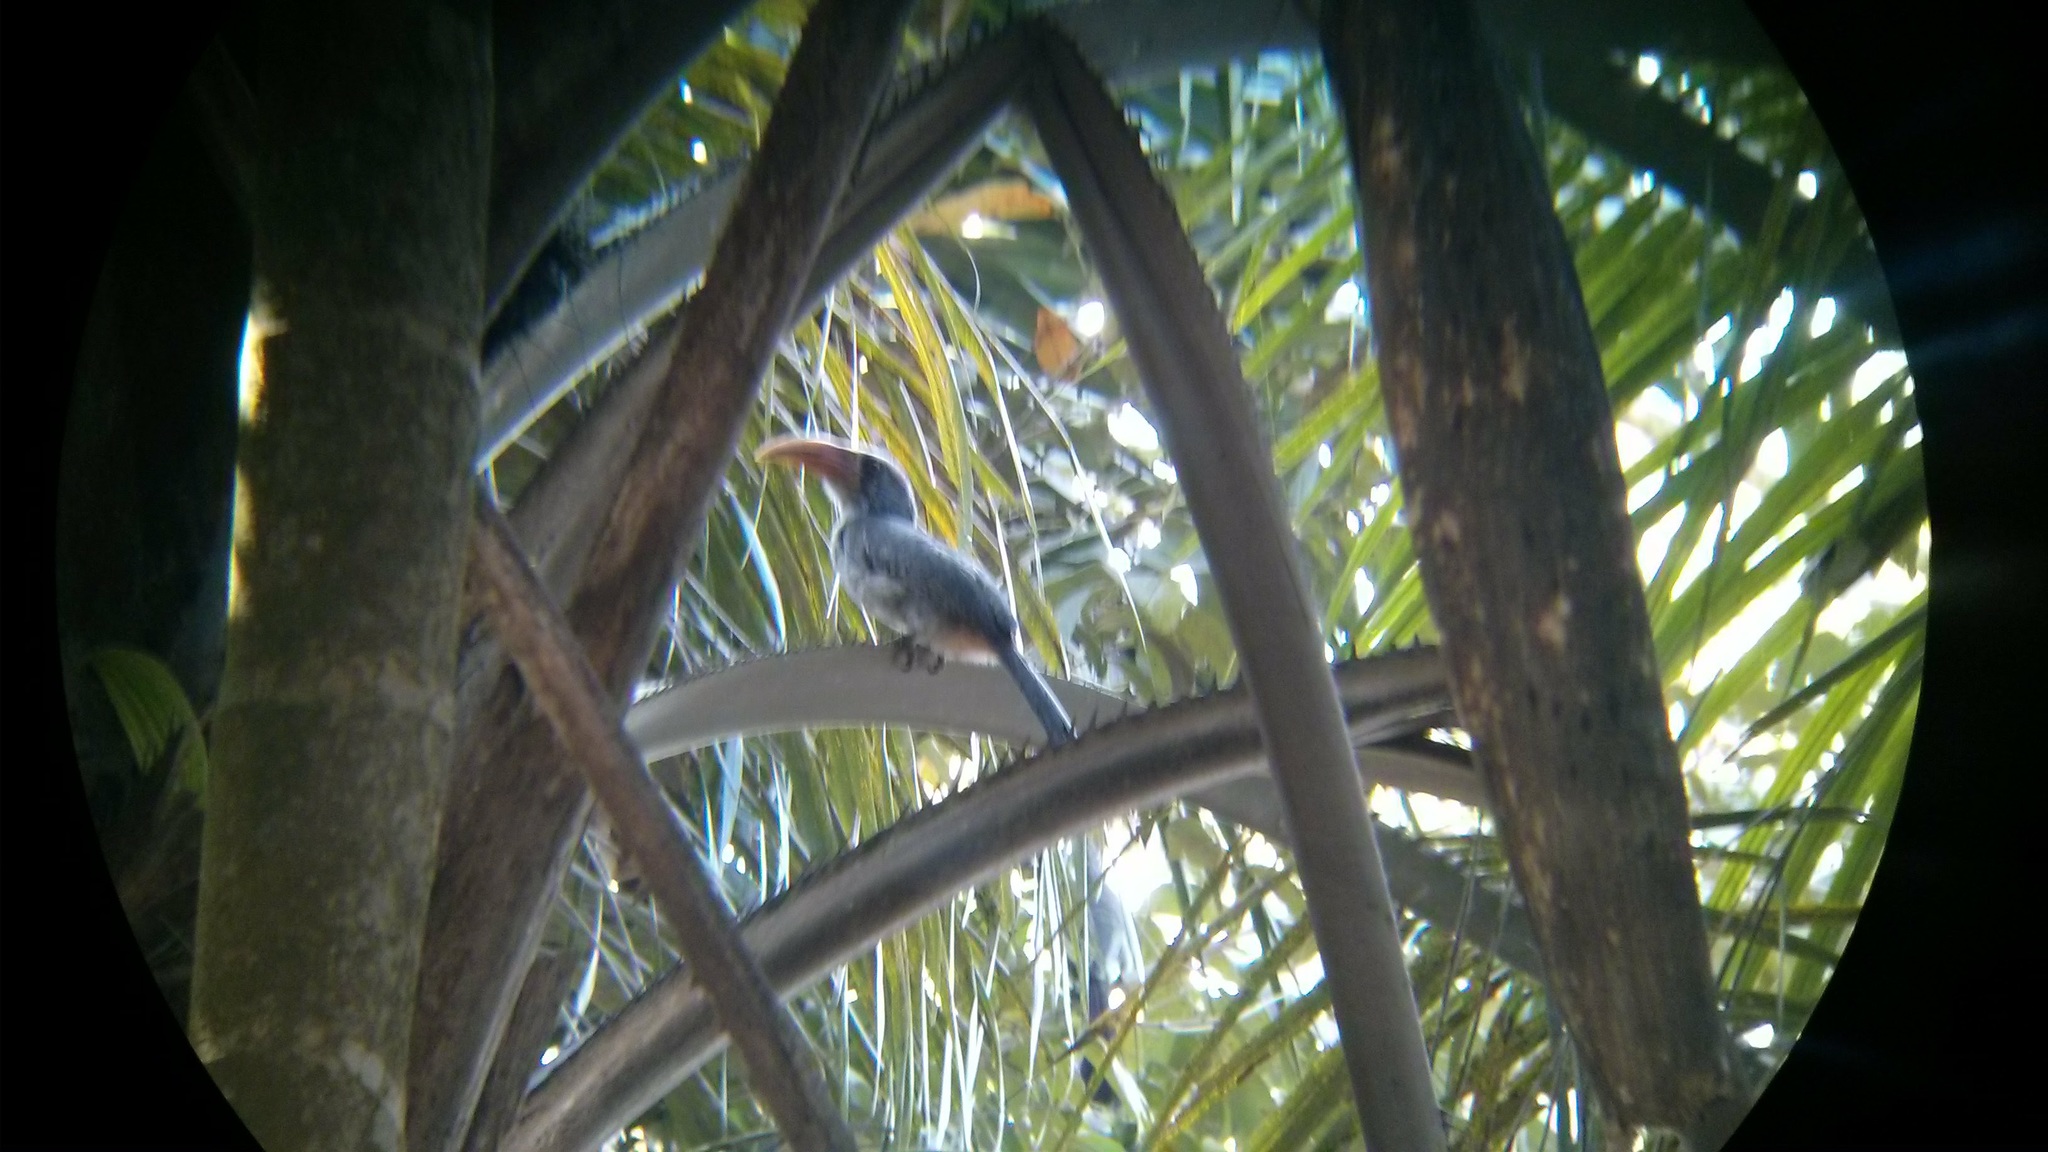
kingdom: Animalia
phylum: Chordata
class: Aves
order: Bucerotiformes
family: Bucerotidae
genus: Ocyceros
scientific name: Ocyceros griseus
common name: Malabar grey hornbill
